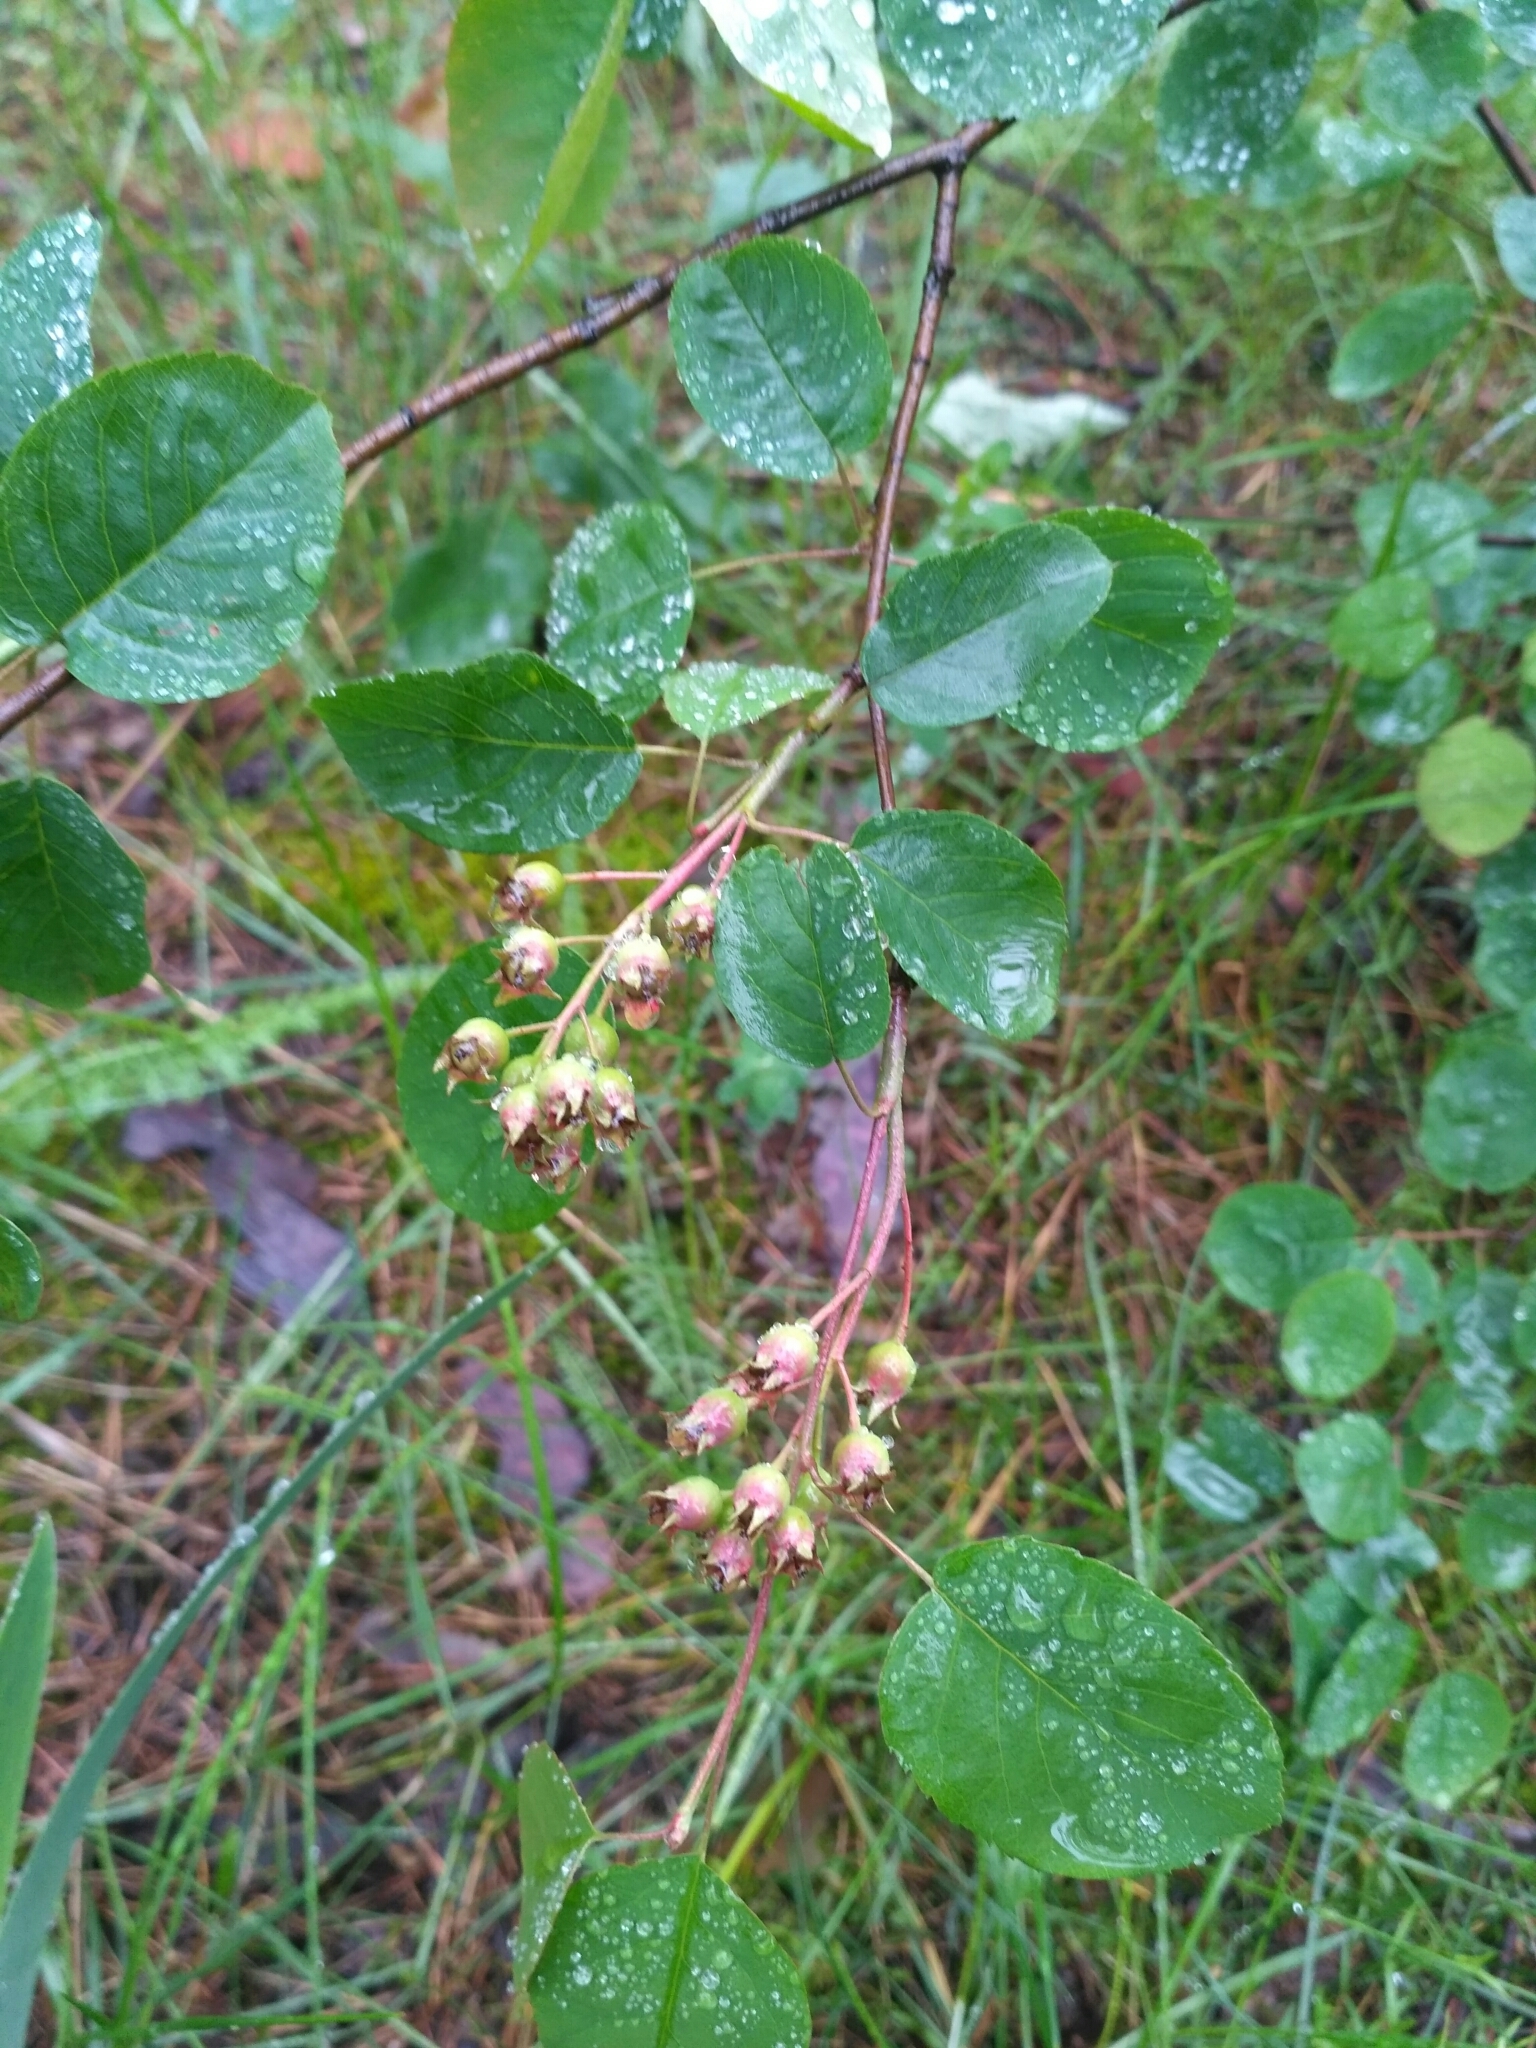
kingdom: Plantae
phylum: Tracheophyta
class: Magnoliopsida
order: Rosales
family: Rosaceae
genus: Amelanchier
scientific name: Amelanchier
